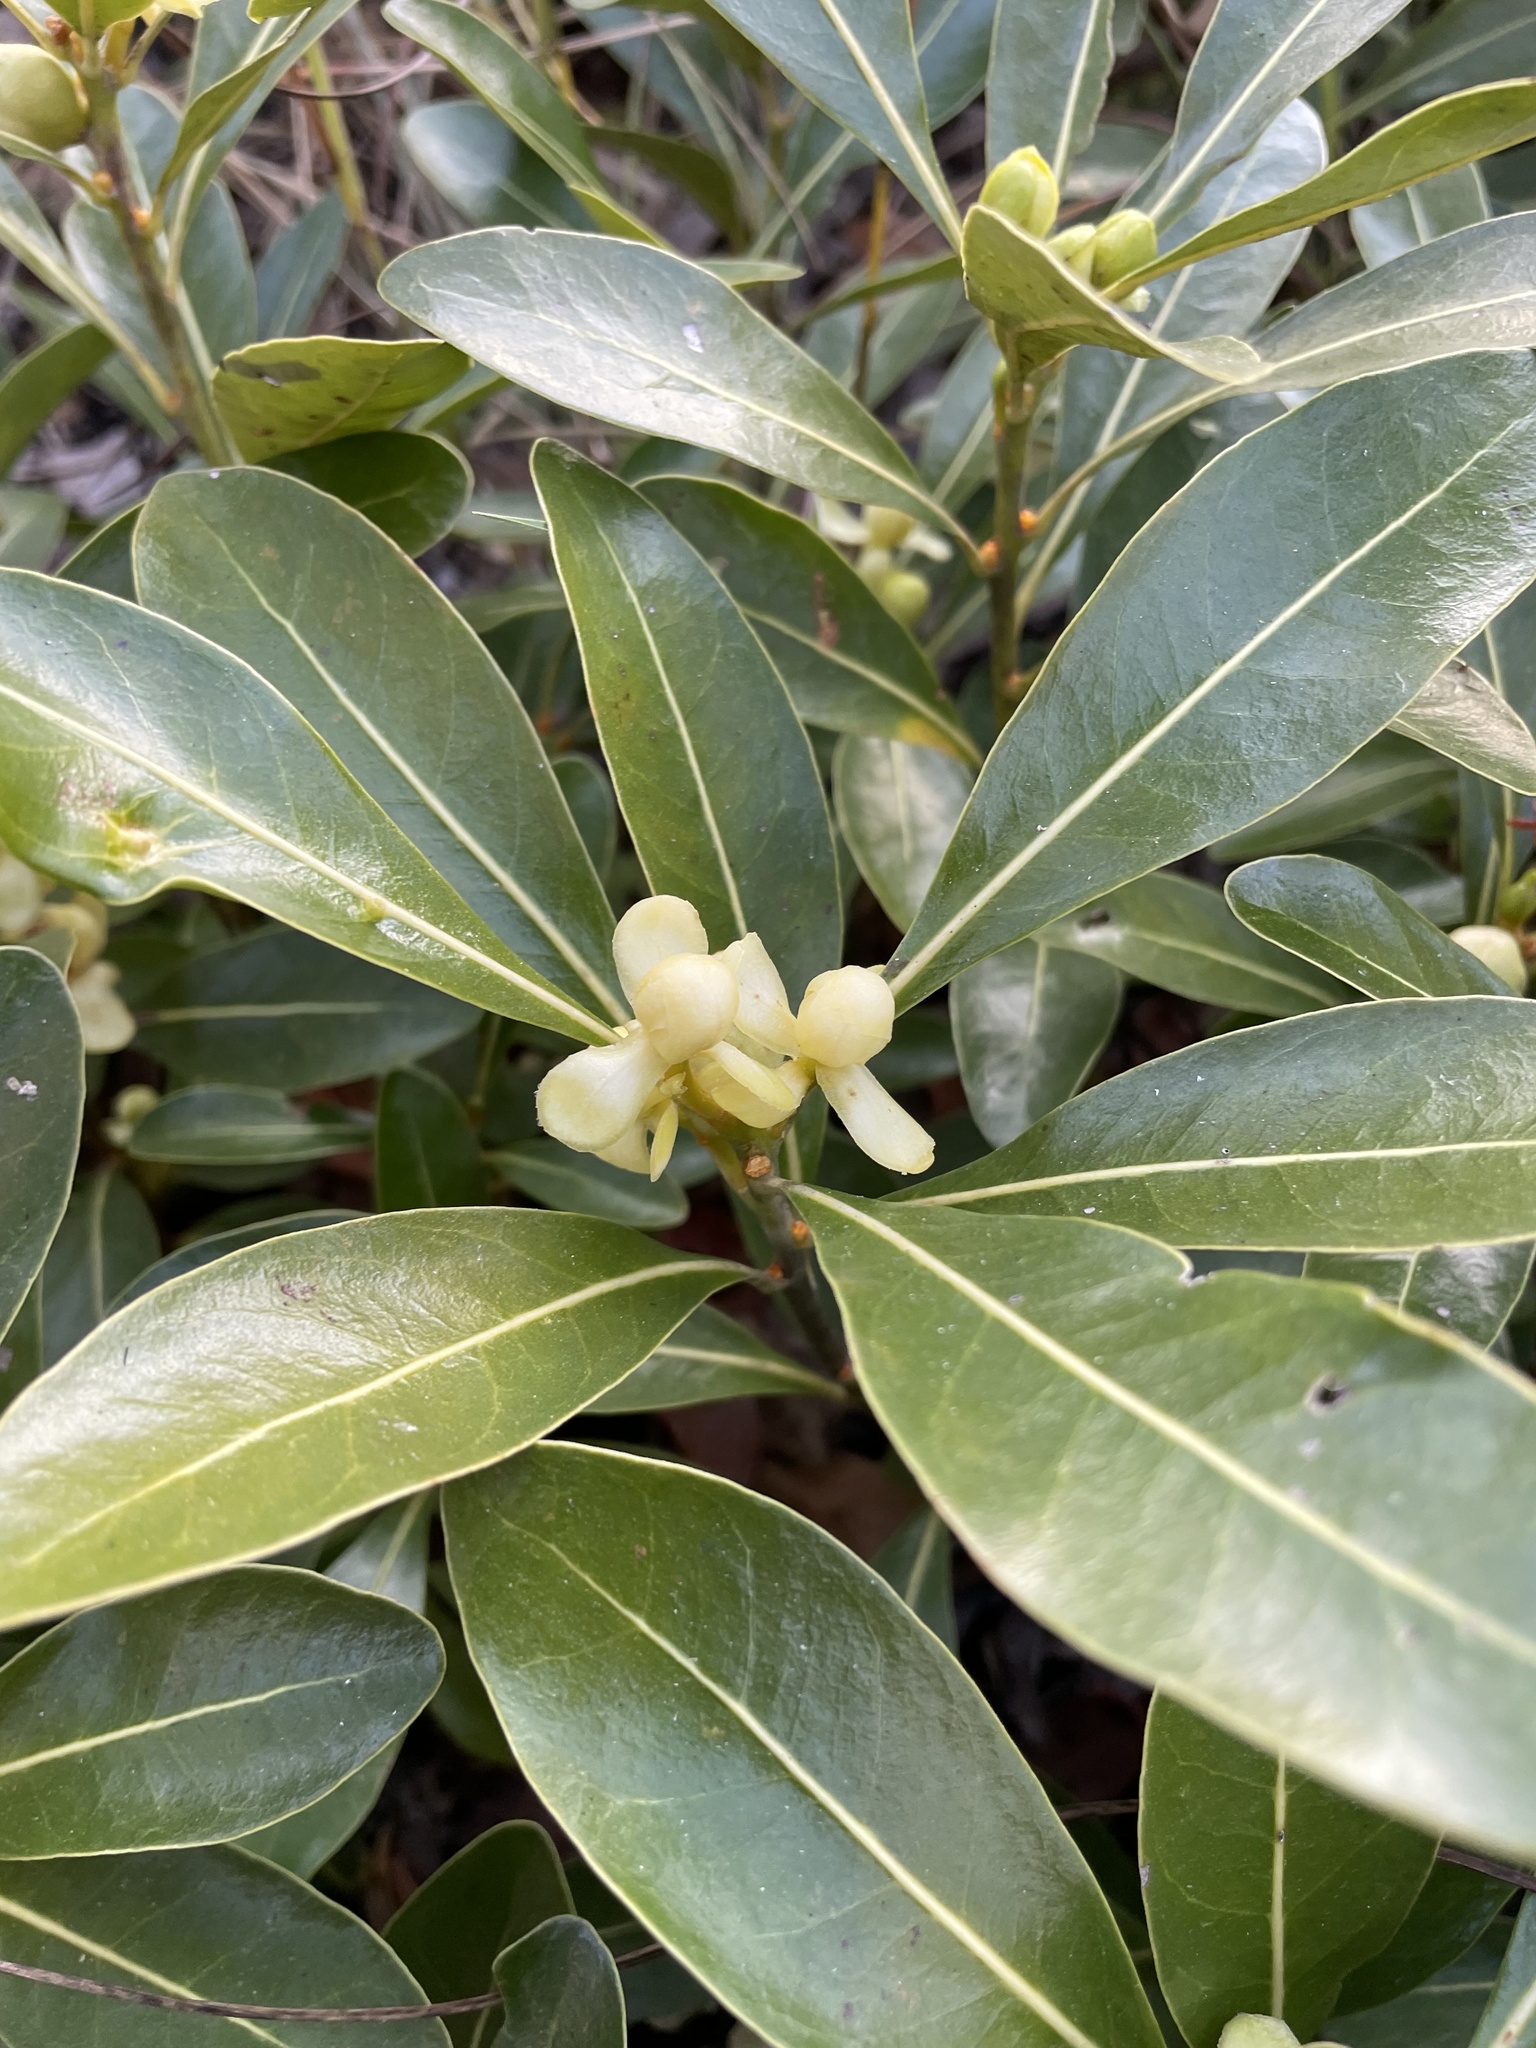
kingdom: Plantae
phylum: Tracheophyta
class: Magnoliopsida
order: Malpighiales
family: Phyllanthaceae
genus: Uapaca
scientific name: Uapaca nitida
